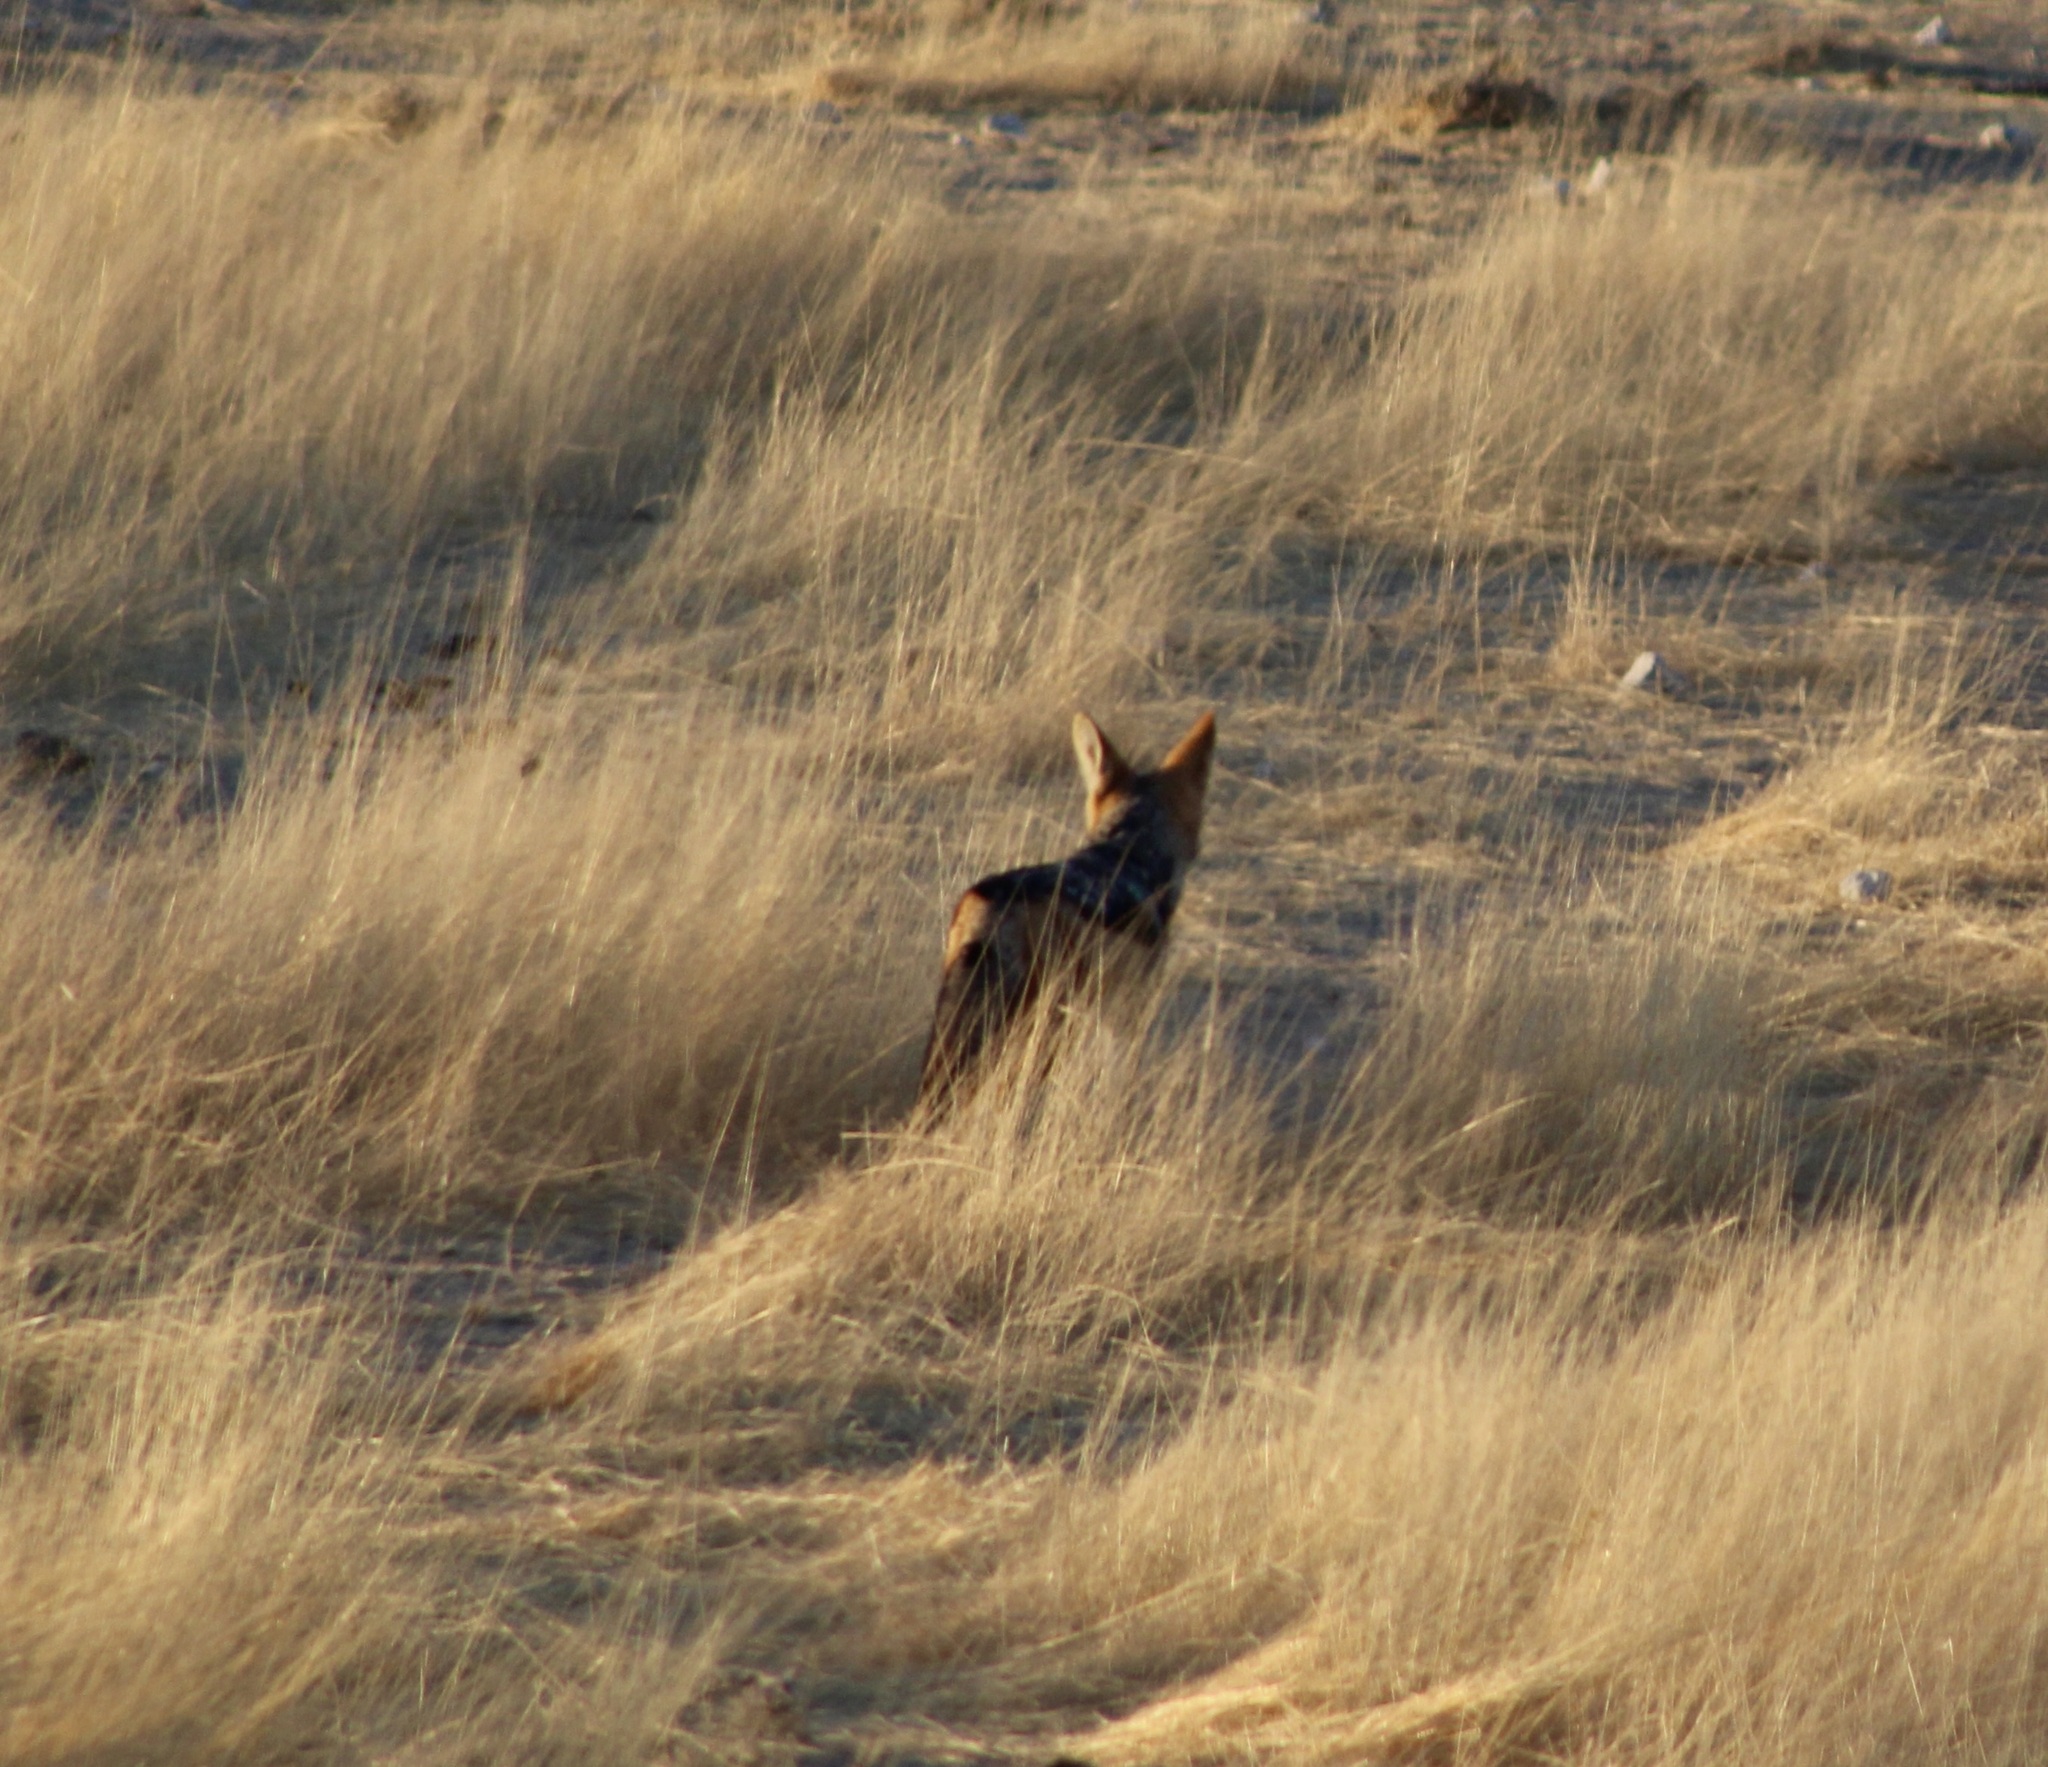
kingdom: Animalia
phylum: Chordata
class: Mammalia
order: Carnivora
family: Canidae
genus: Lupulella
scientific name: Lupulella
